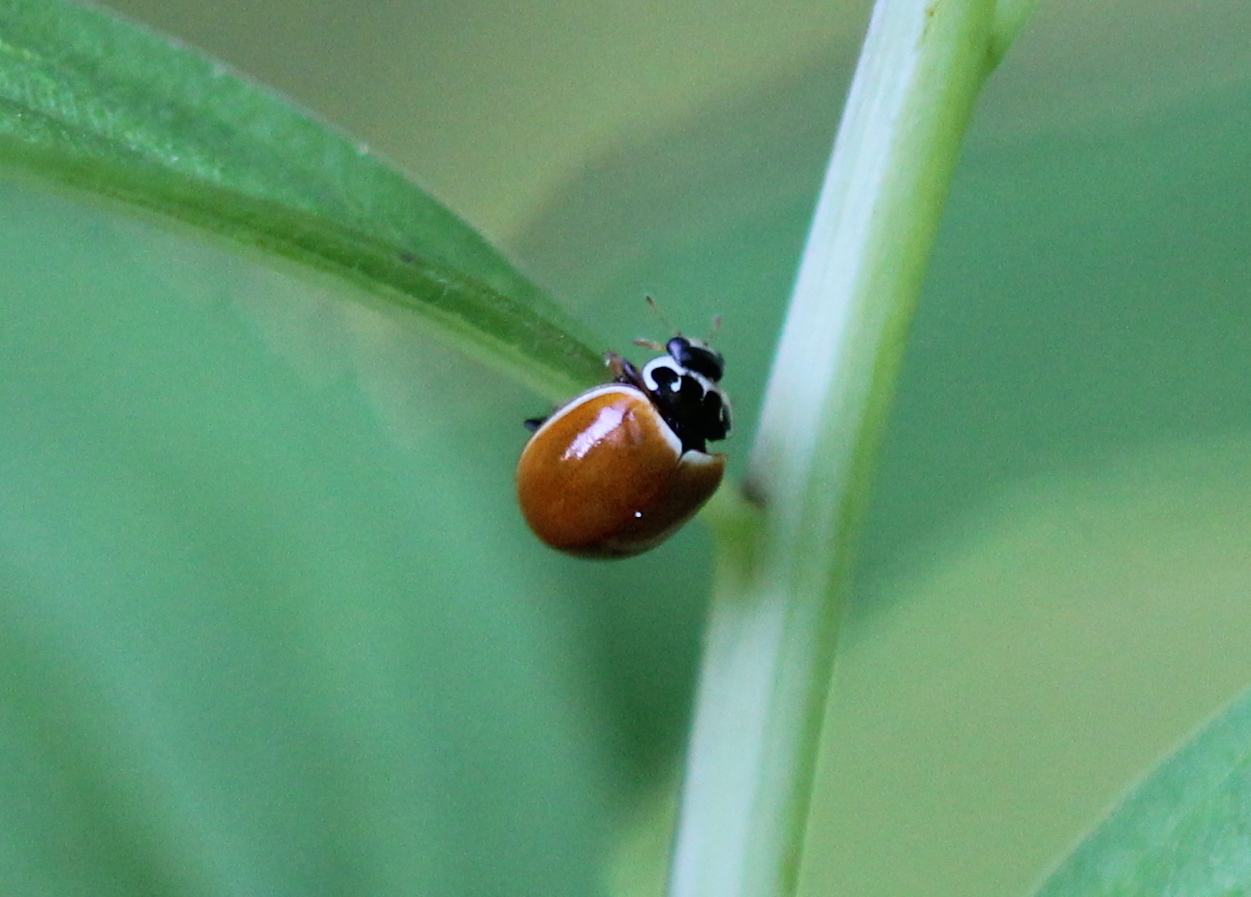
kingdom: Animalia
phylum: Arthropoda
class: Insecta
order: Coleoptera
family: Coccinellidae
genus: Cycloneda
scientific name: Cycloneda munda
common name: Polished lady beetle
